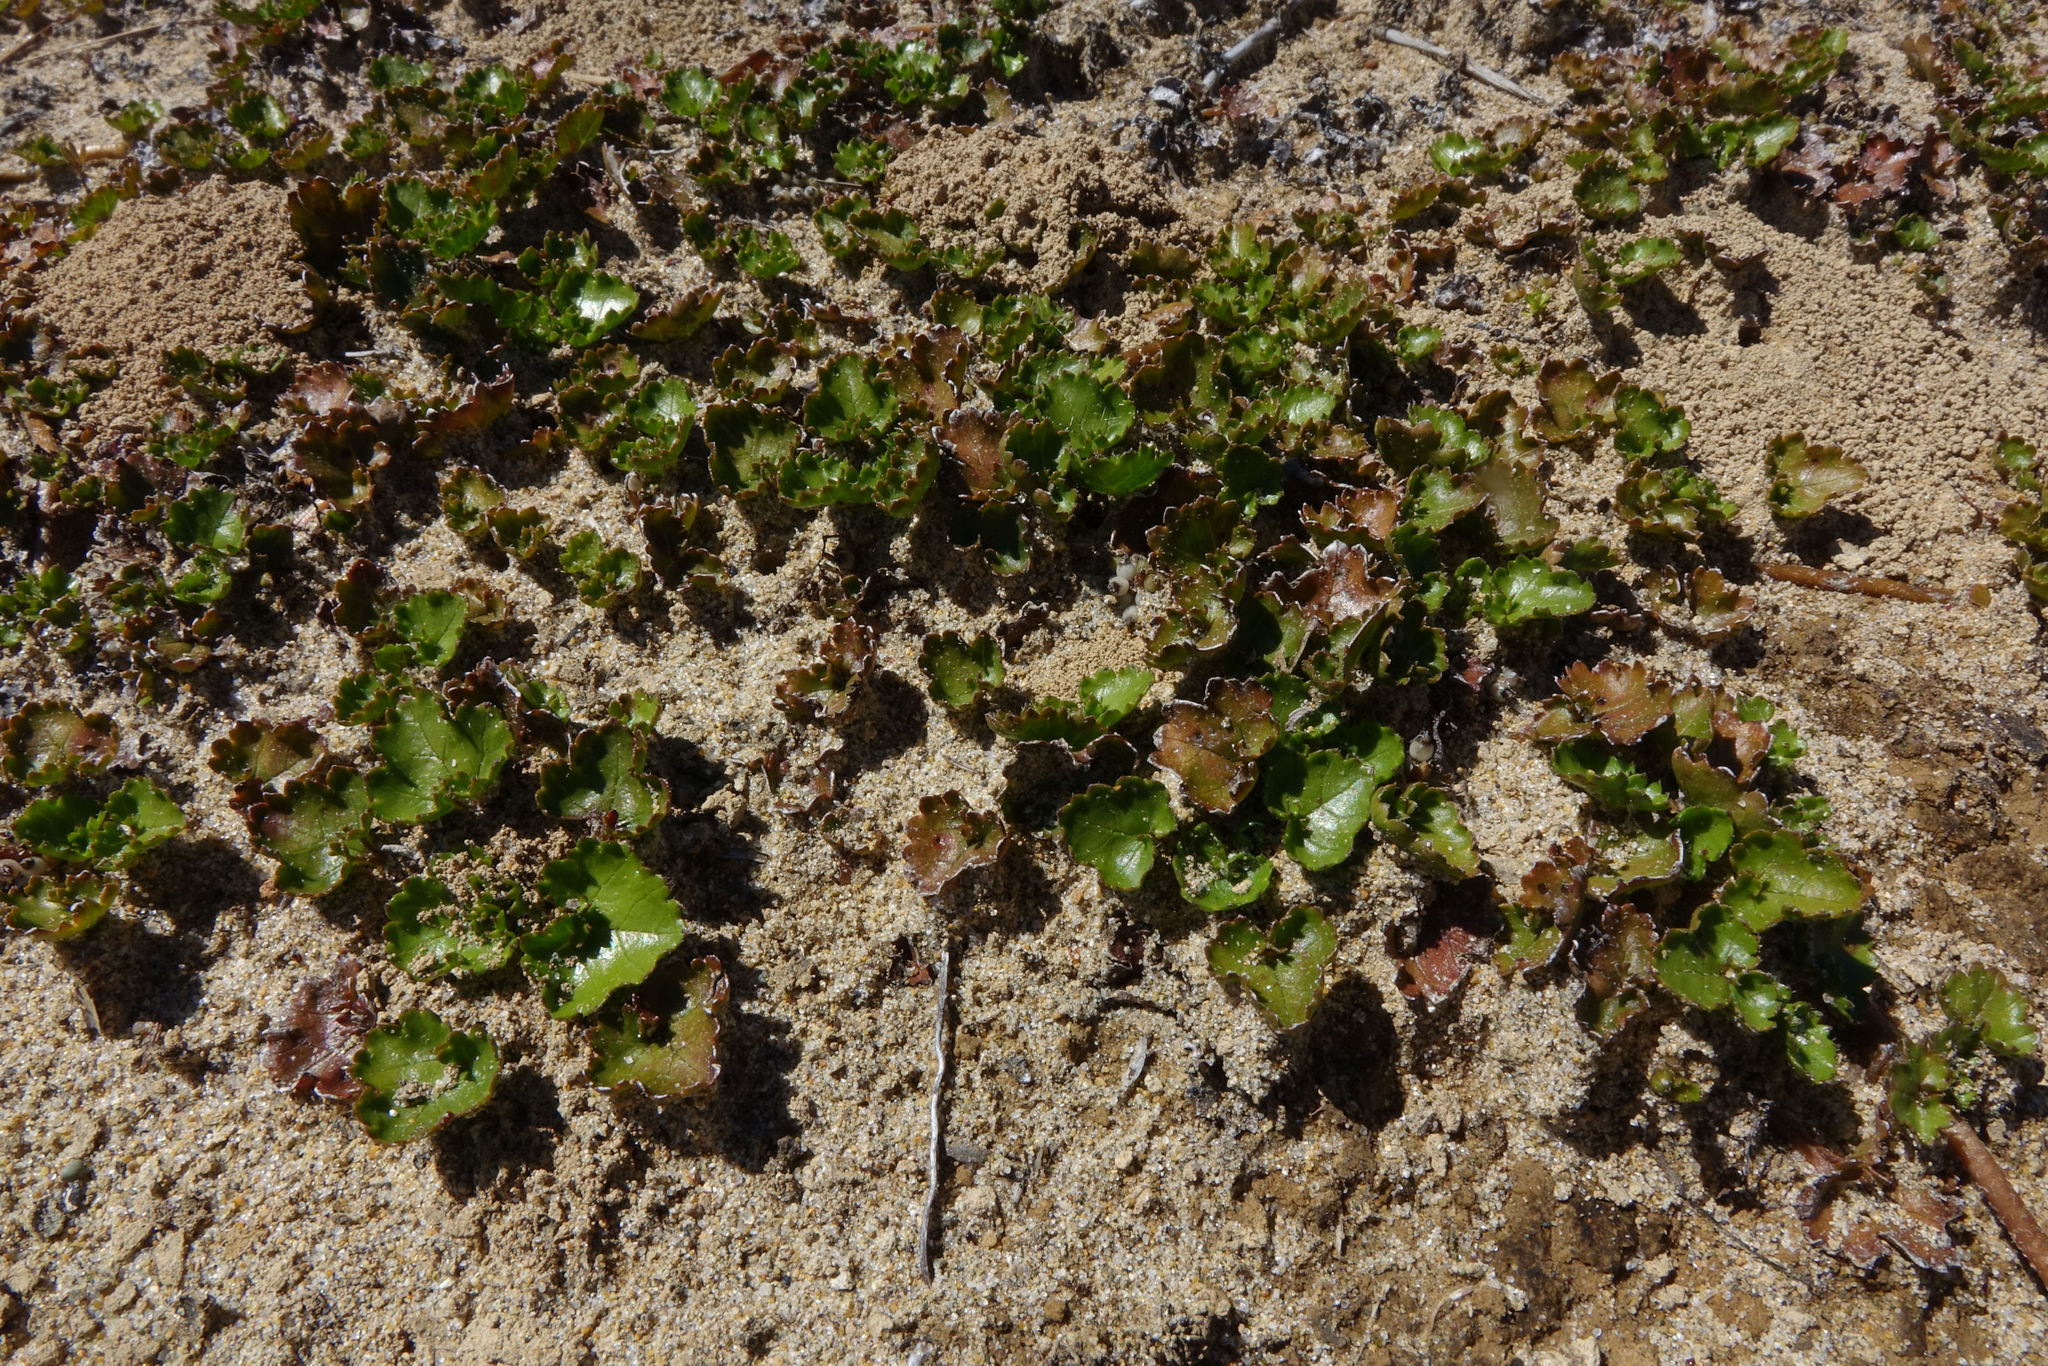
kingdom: Plantae
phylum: Tracheophyta
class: Magnoliopsida
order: Gunnerales
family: Gunneraceae
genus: Gunnera
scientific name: Gunnera monoica
